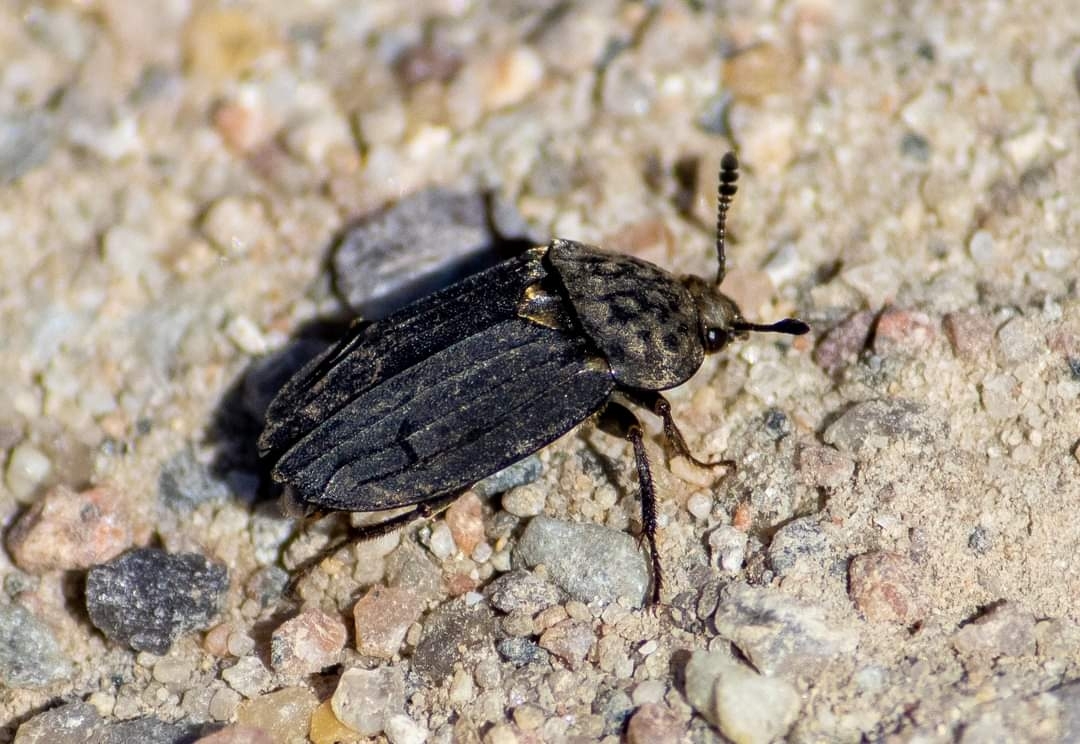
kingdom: Animalia
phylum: Arthropoda
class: Insecta
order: Coleoptera
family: Staphylinidae
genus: Thanatophilus
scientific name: Thanatophilus sinuatus
